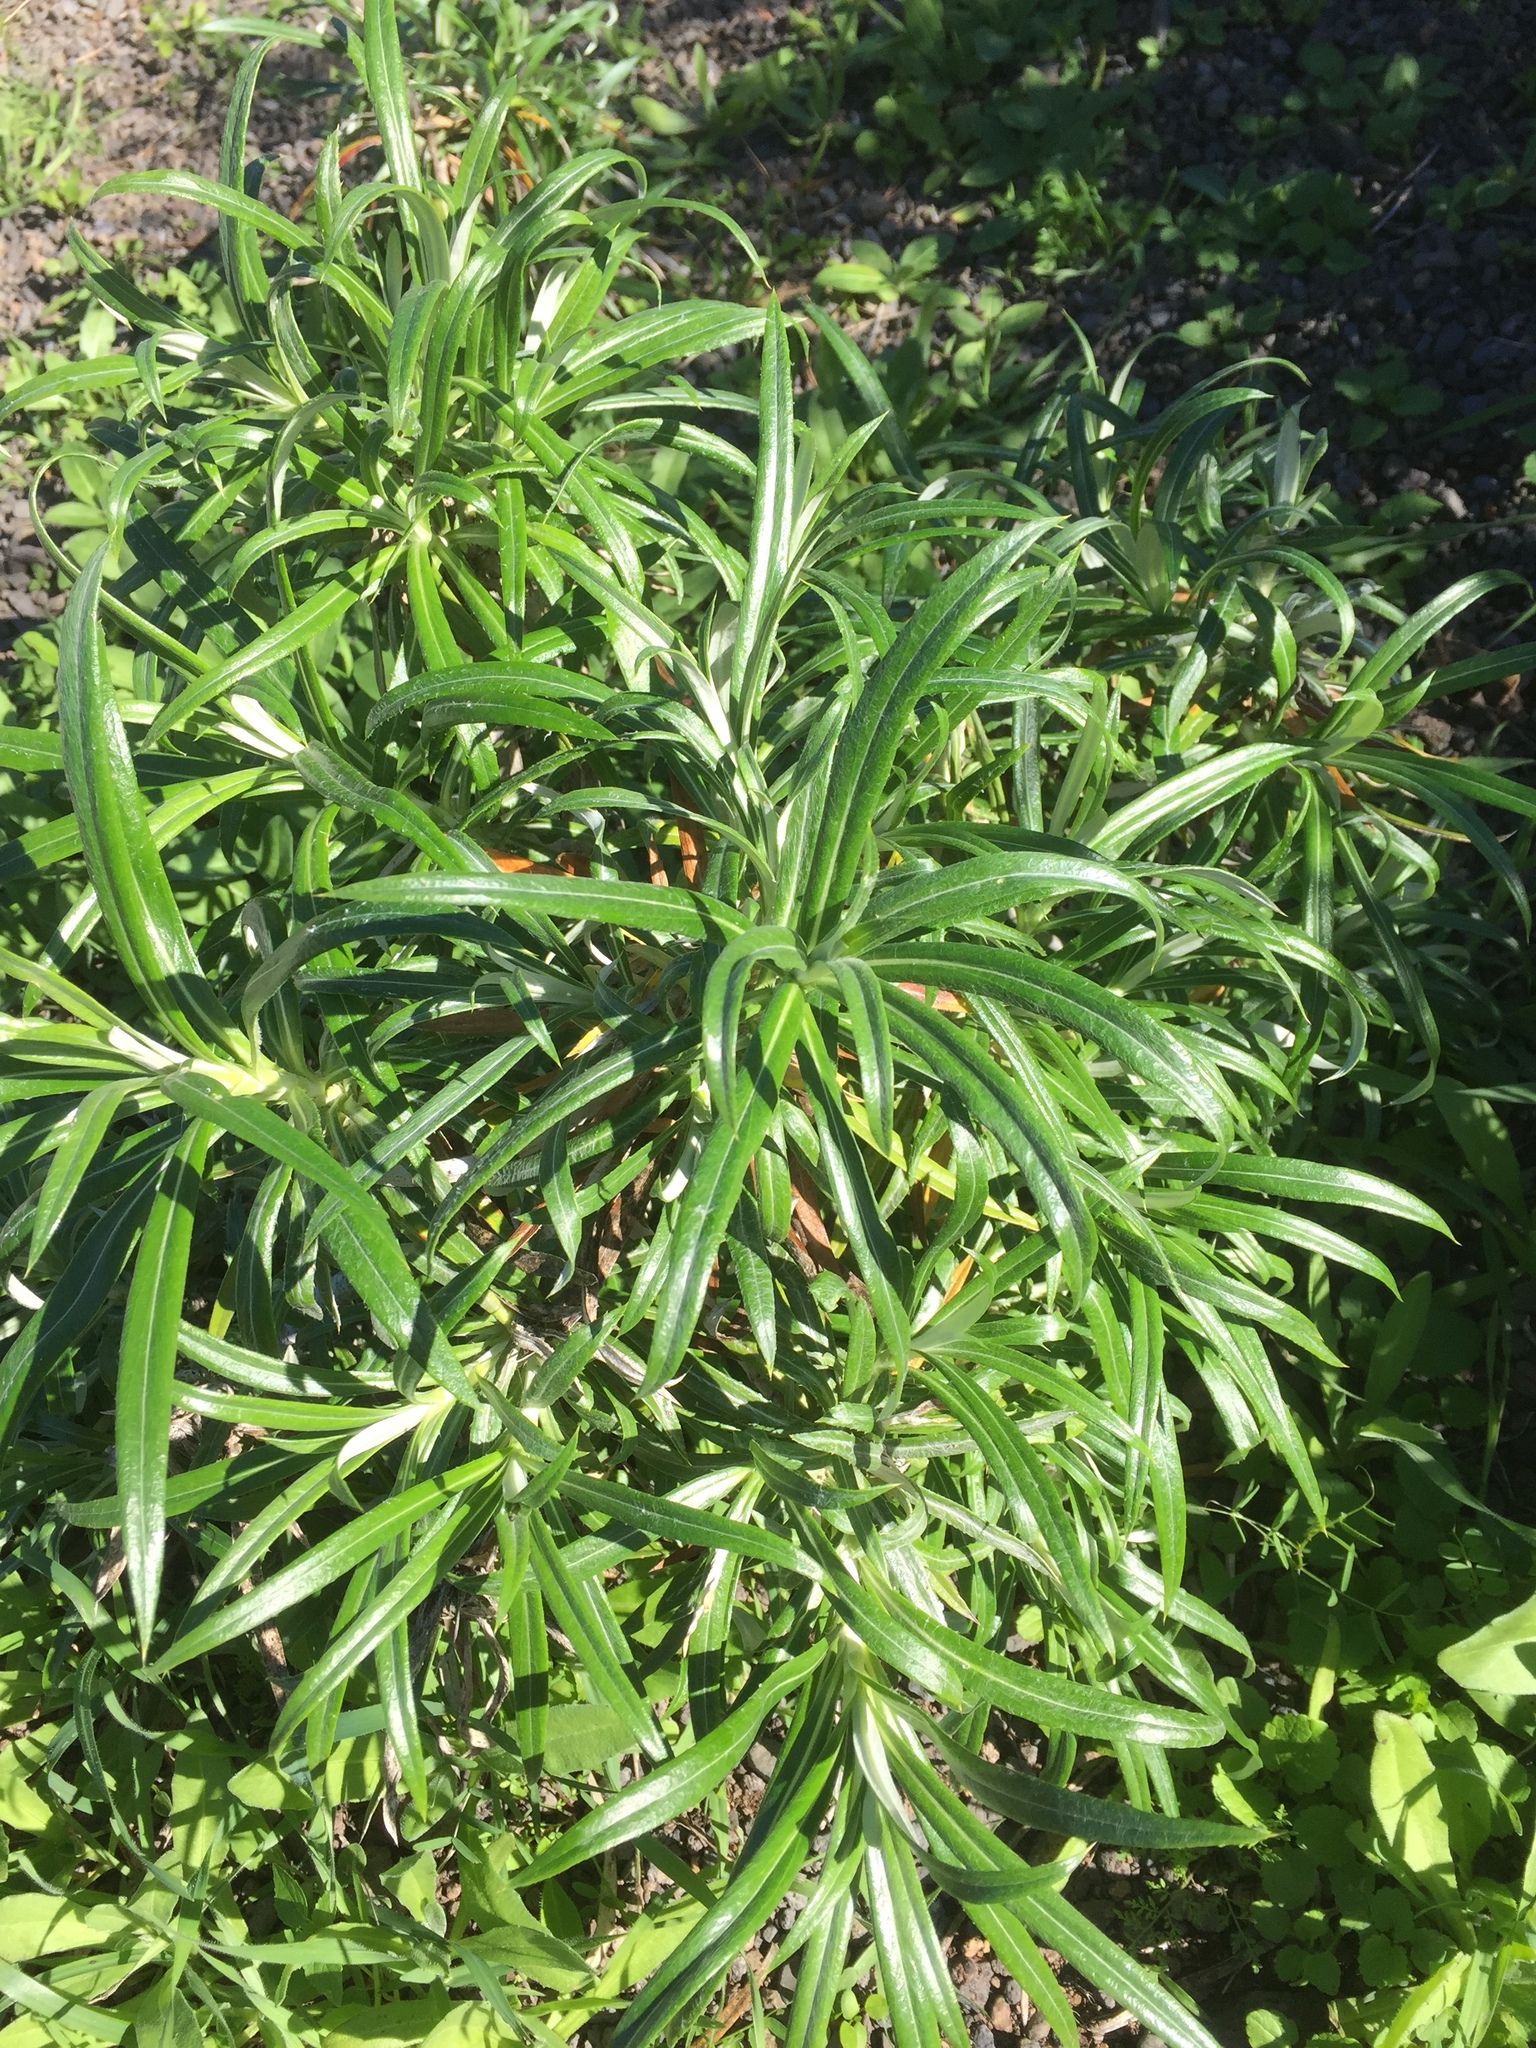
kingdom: Plantae
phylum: Tracheophyta
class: Magnoliopsida
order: Asterales
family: Asteraceae
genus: Carlina
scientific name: Carlina salicifolia
